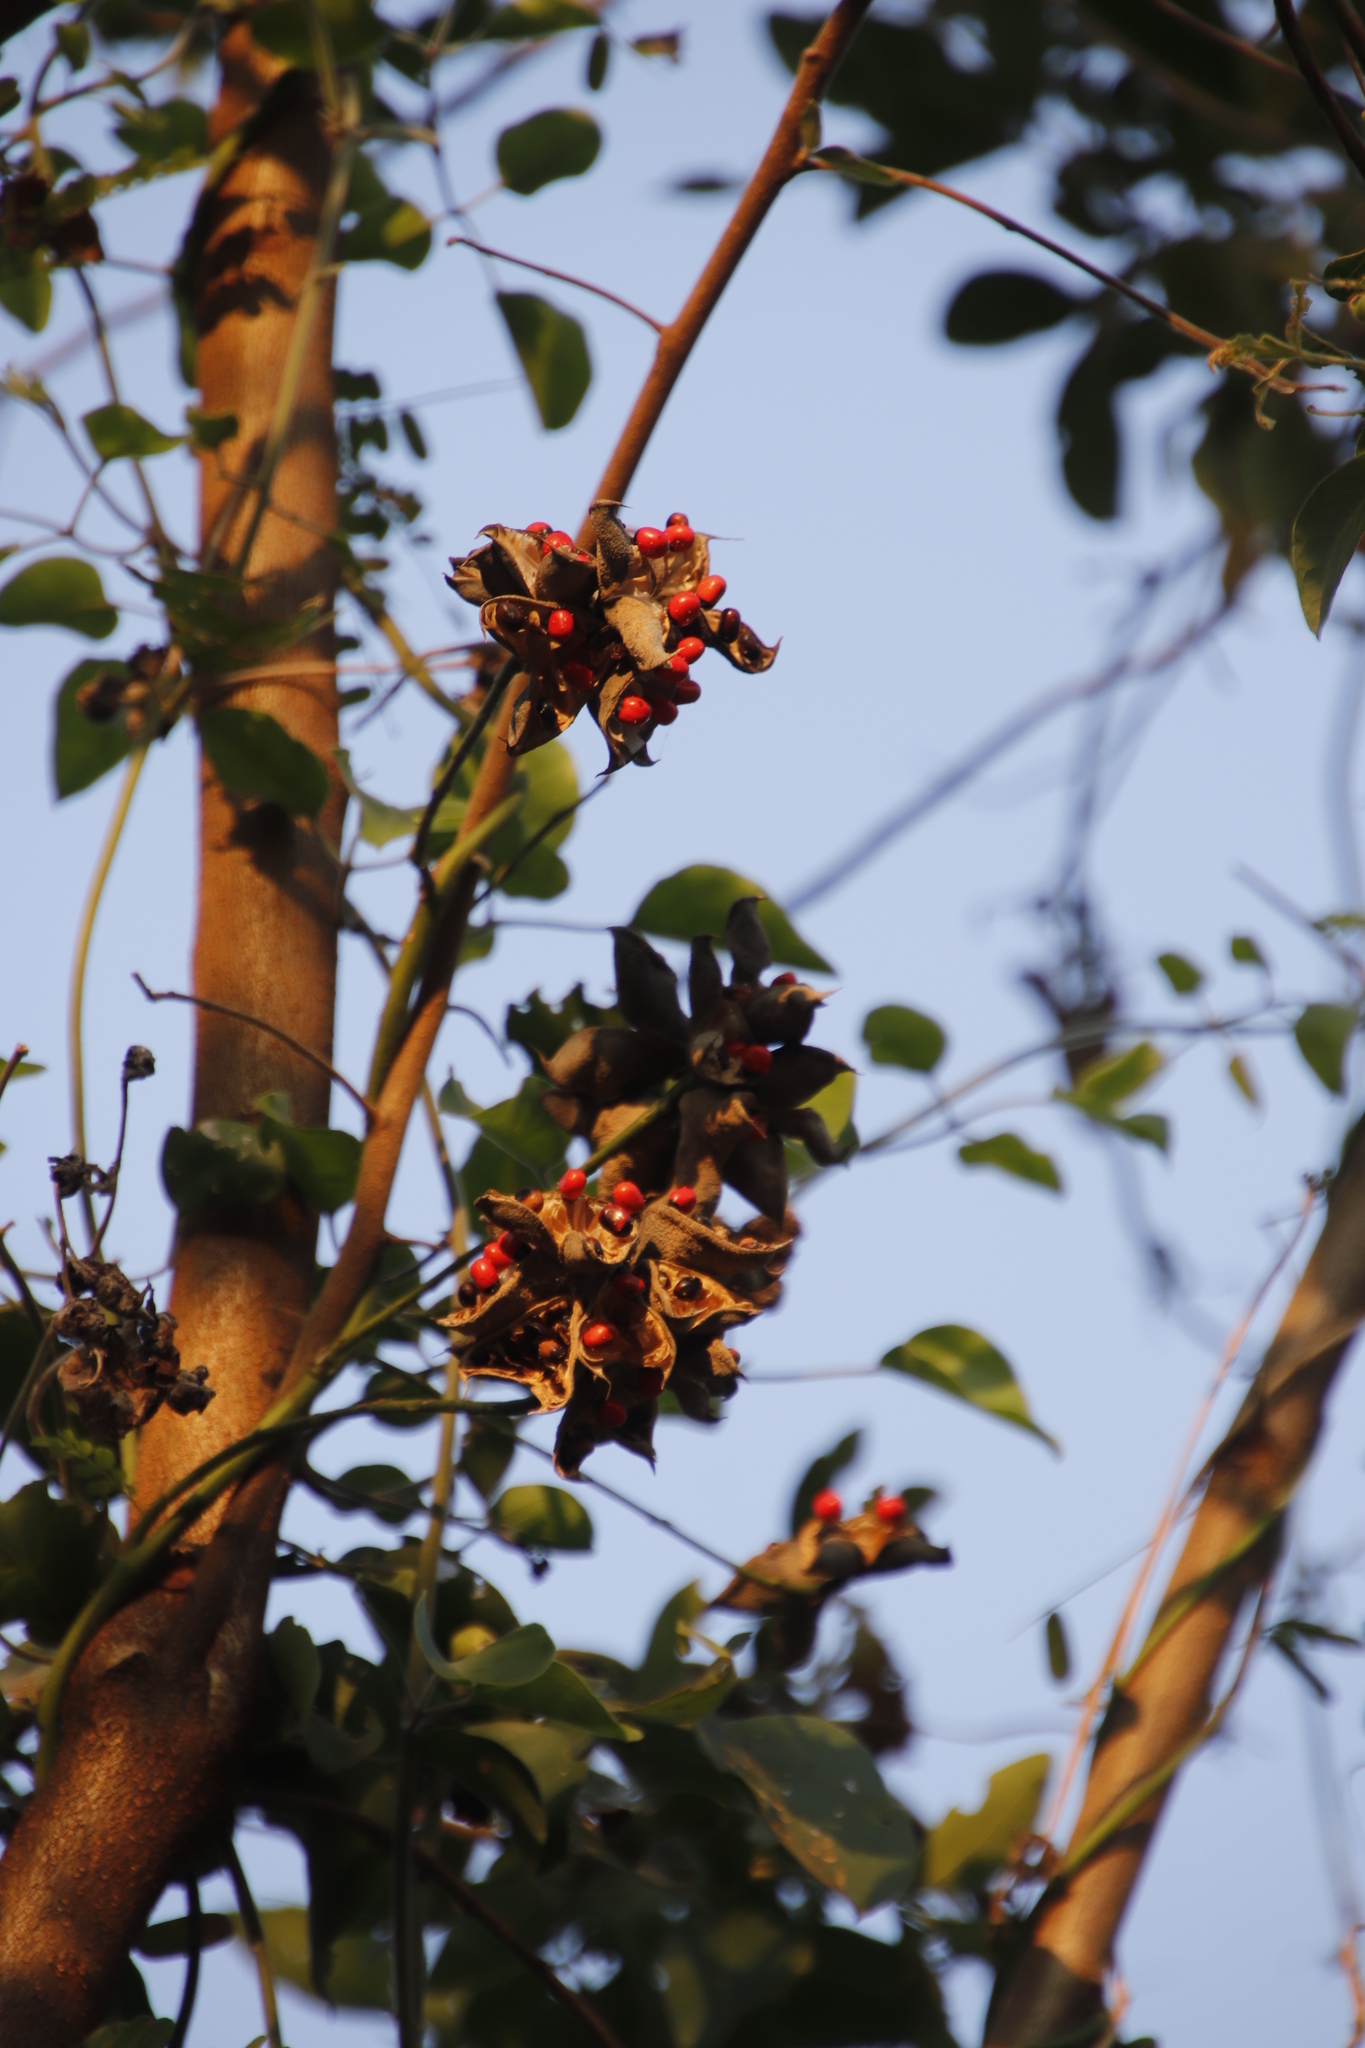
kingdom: Plantae
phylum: Tracheophyta
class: Magnoliopsida
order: Fabales
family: Fabaceae
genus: Abrus
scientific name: Abrus precatorius
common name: Rosarypea
